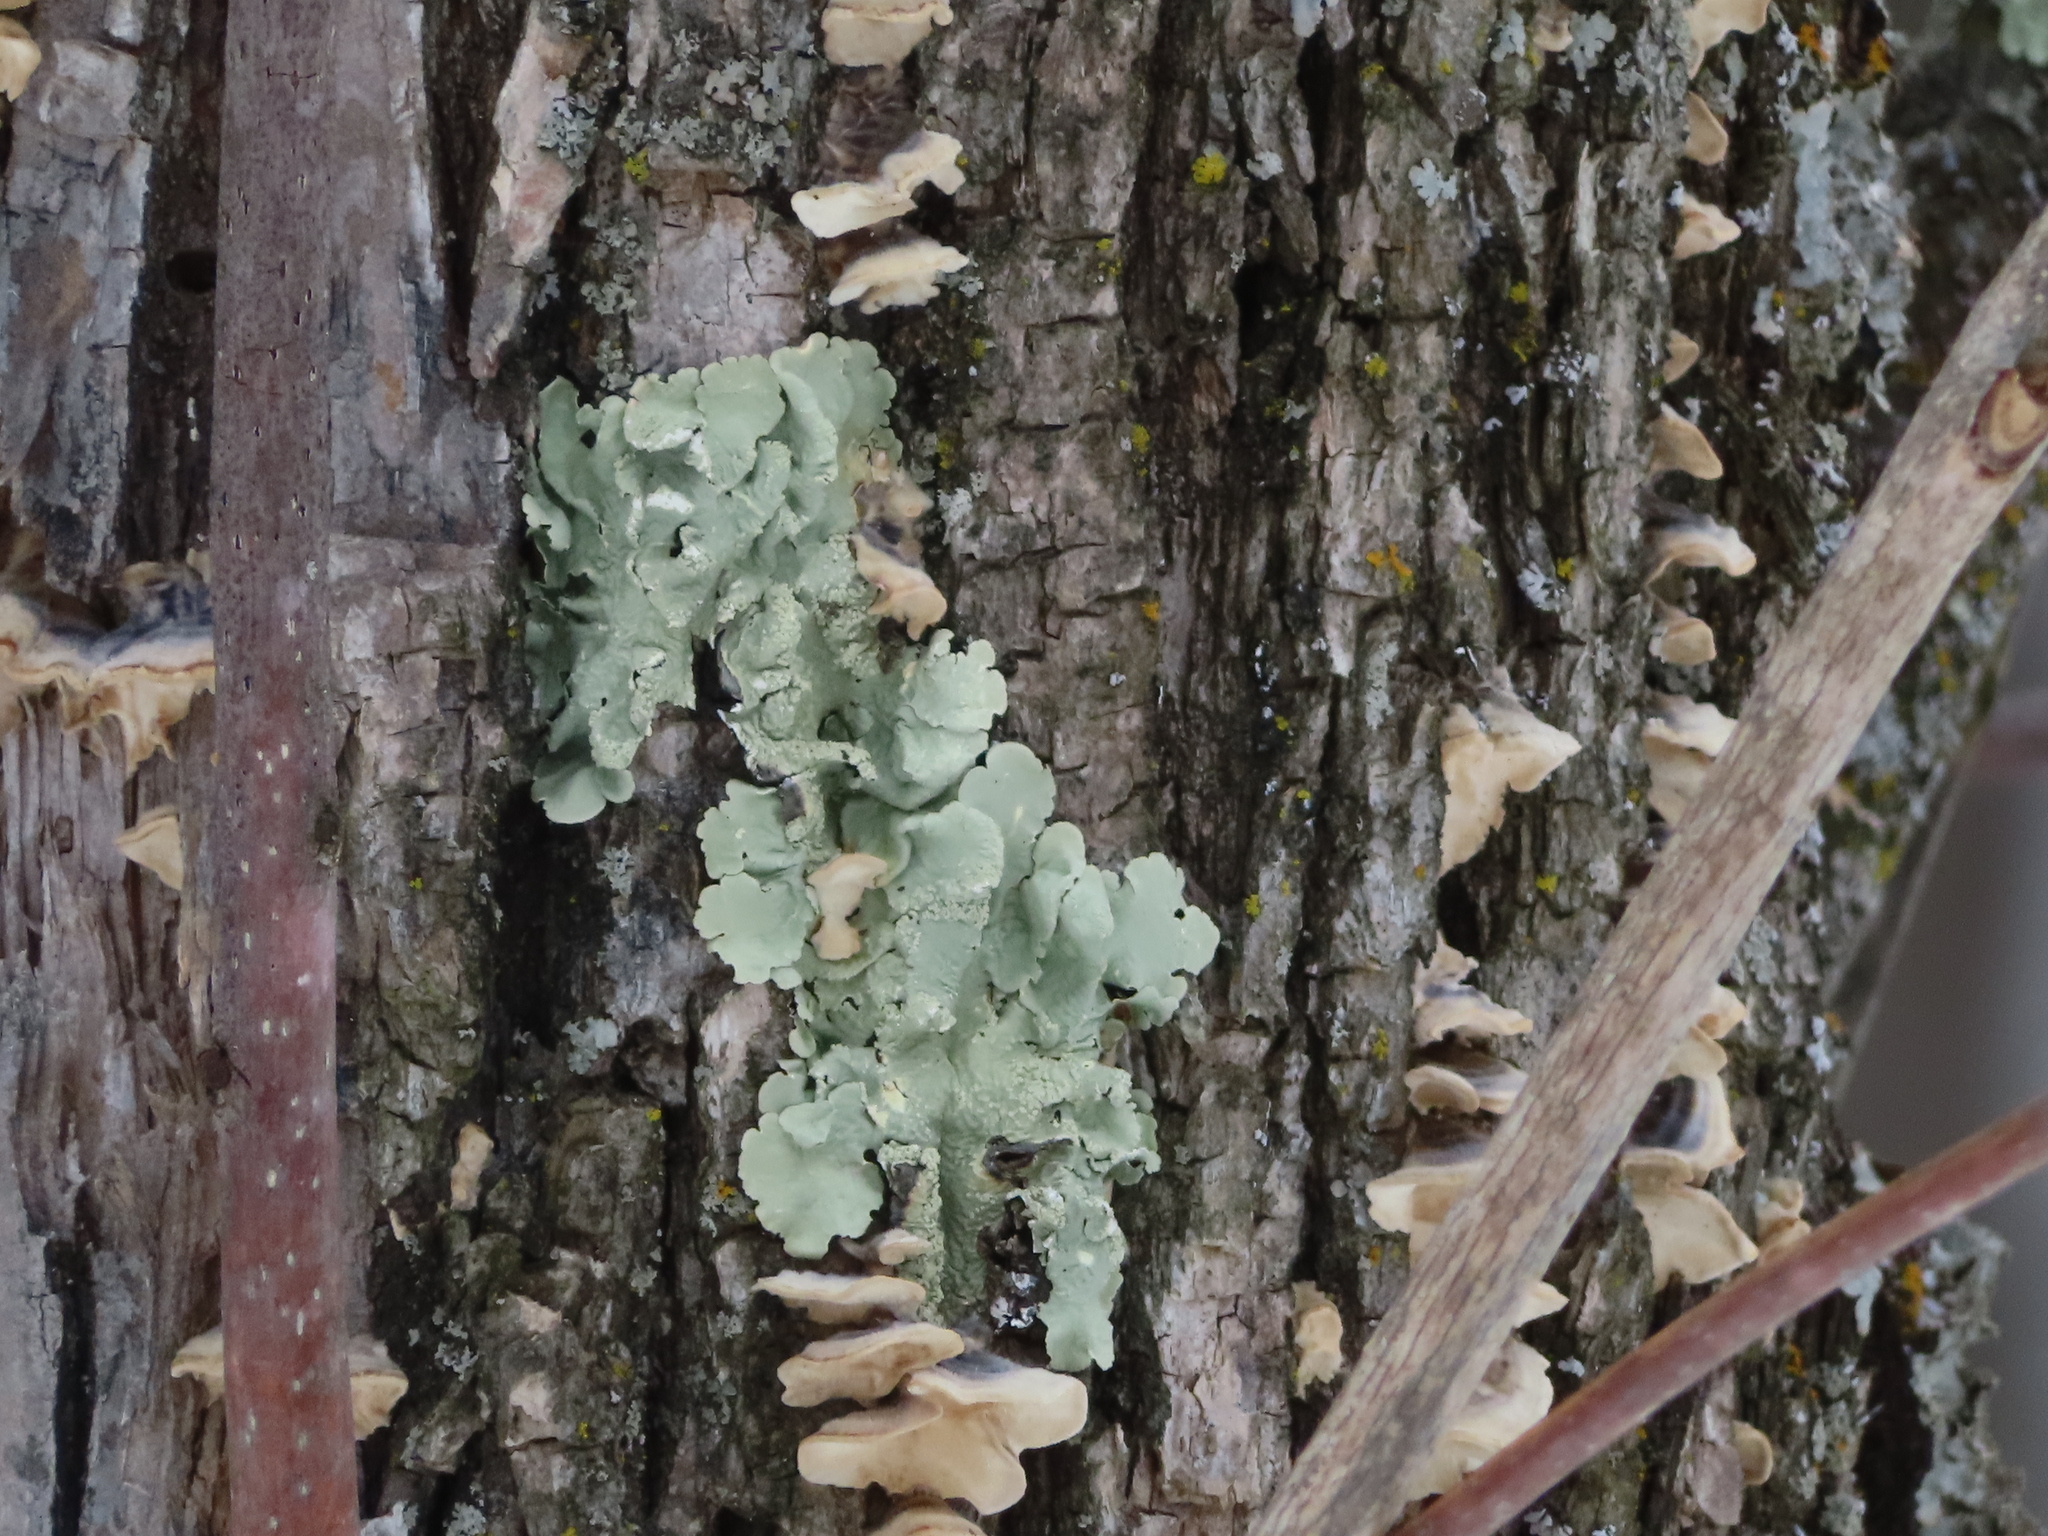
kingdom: Fungi
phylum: Ascomycota
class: Lecanoromycetes
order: Lecanorales
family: Parmeliaceae
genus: Flavoparmelia
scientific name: Flavoparmelia caperata
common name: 40-mile per hour lichen
